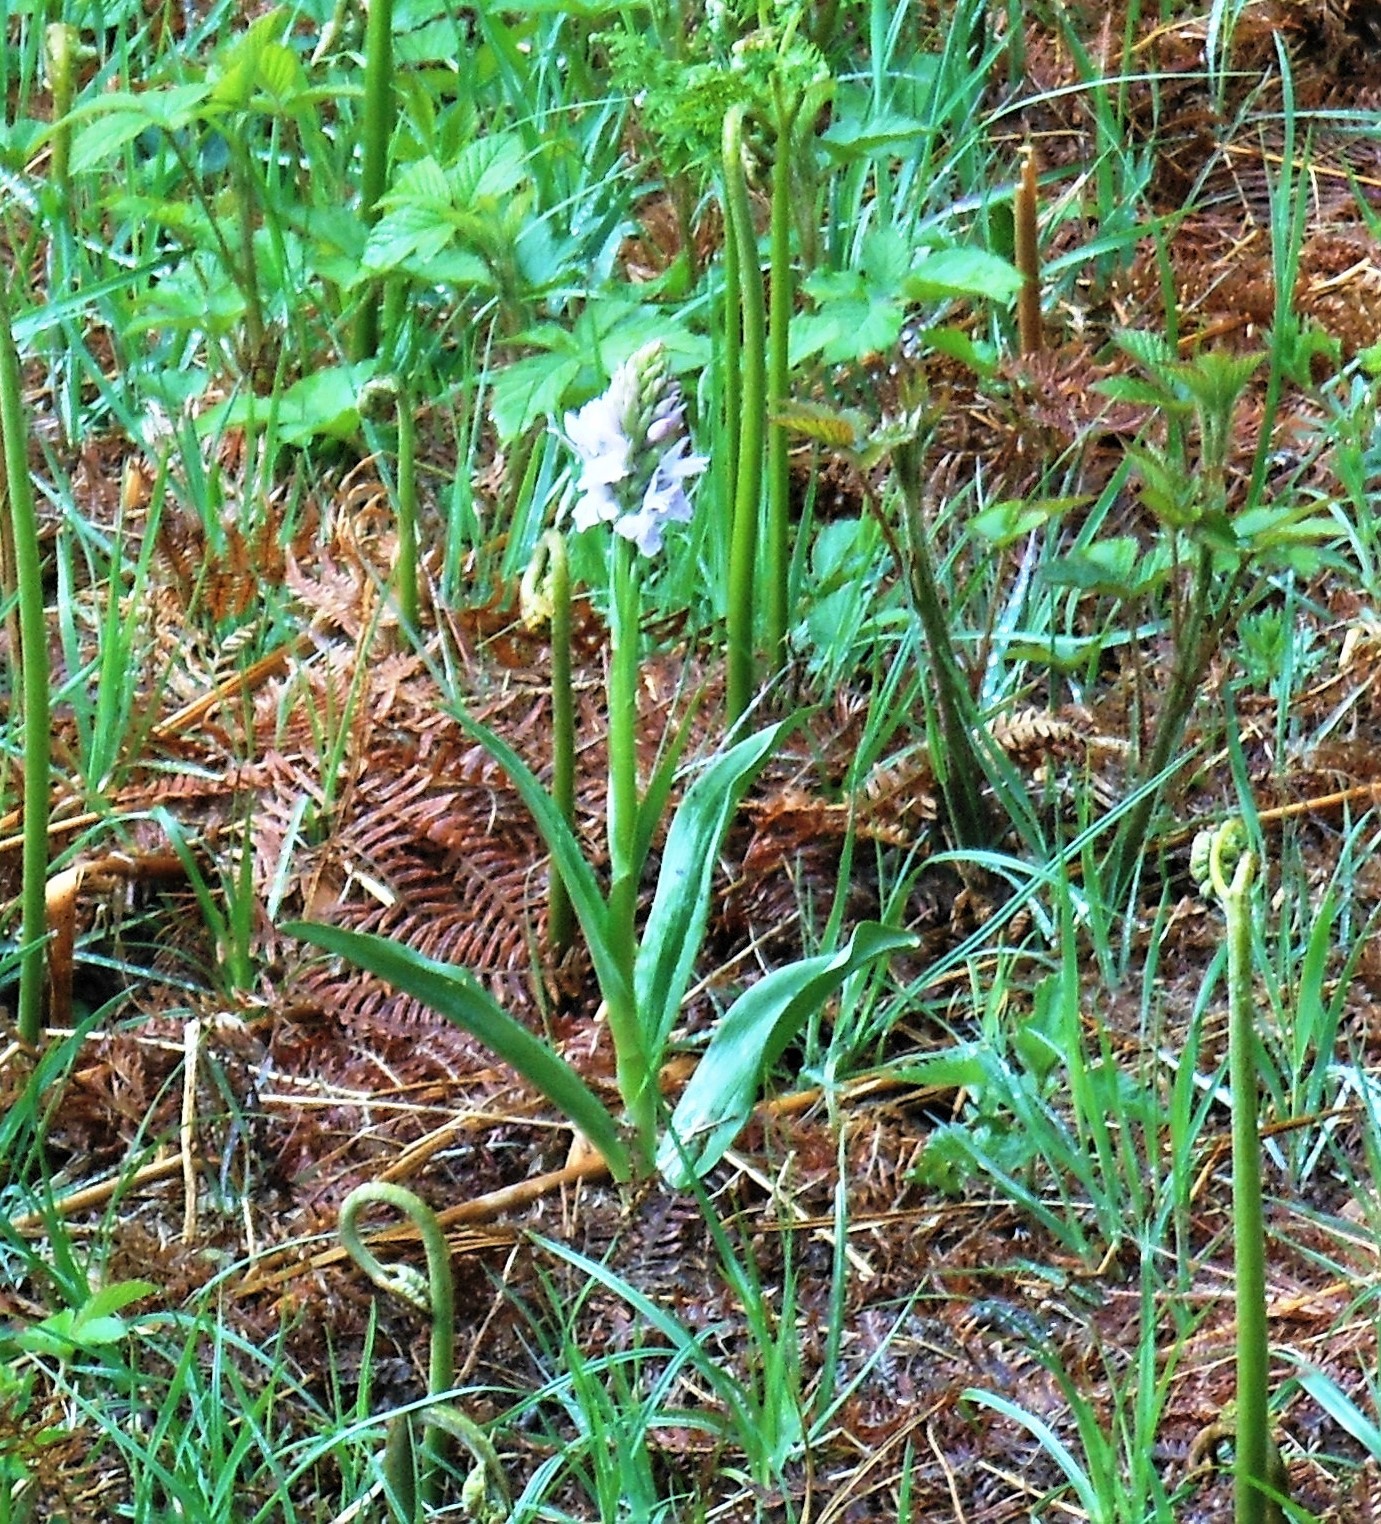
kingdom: Plantae
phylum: Tracheophyta
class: Liliopsida
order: Asparagales
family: Orchidaceae
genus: Dactylorhiza
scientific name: Dactylorhiza maculata
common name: Heath spotted-orchid
